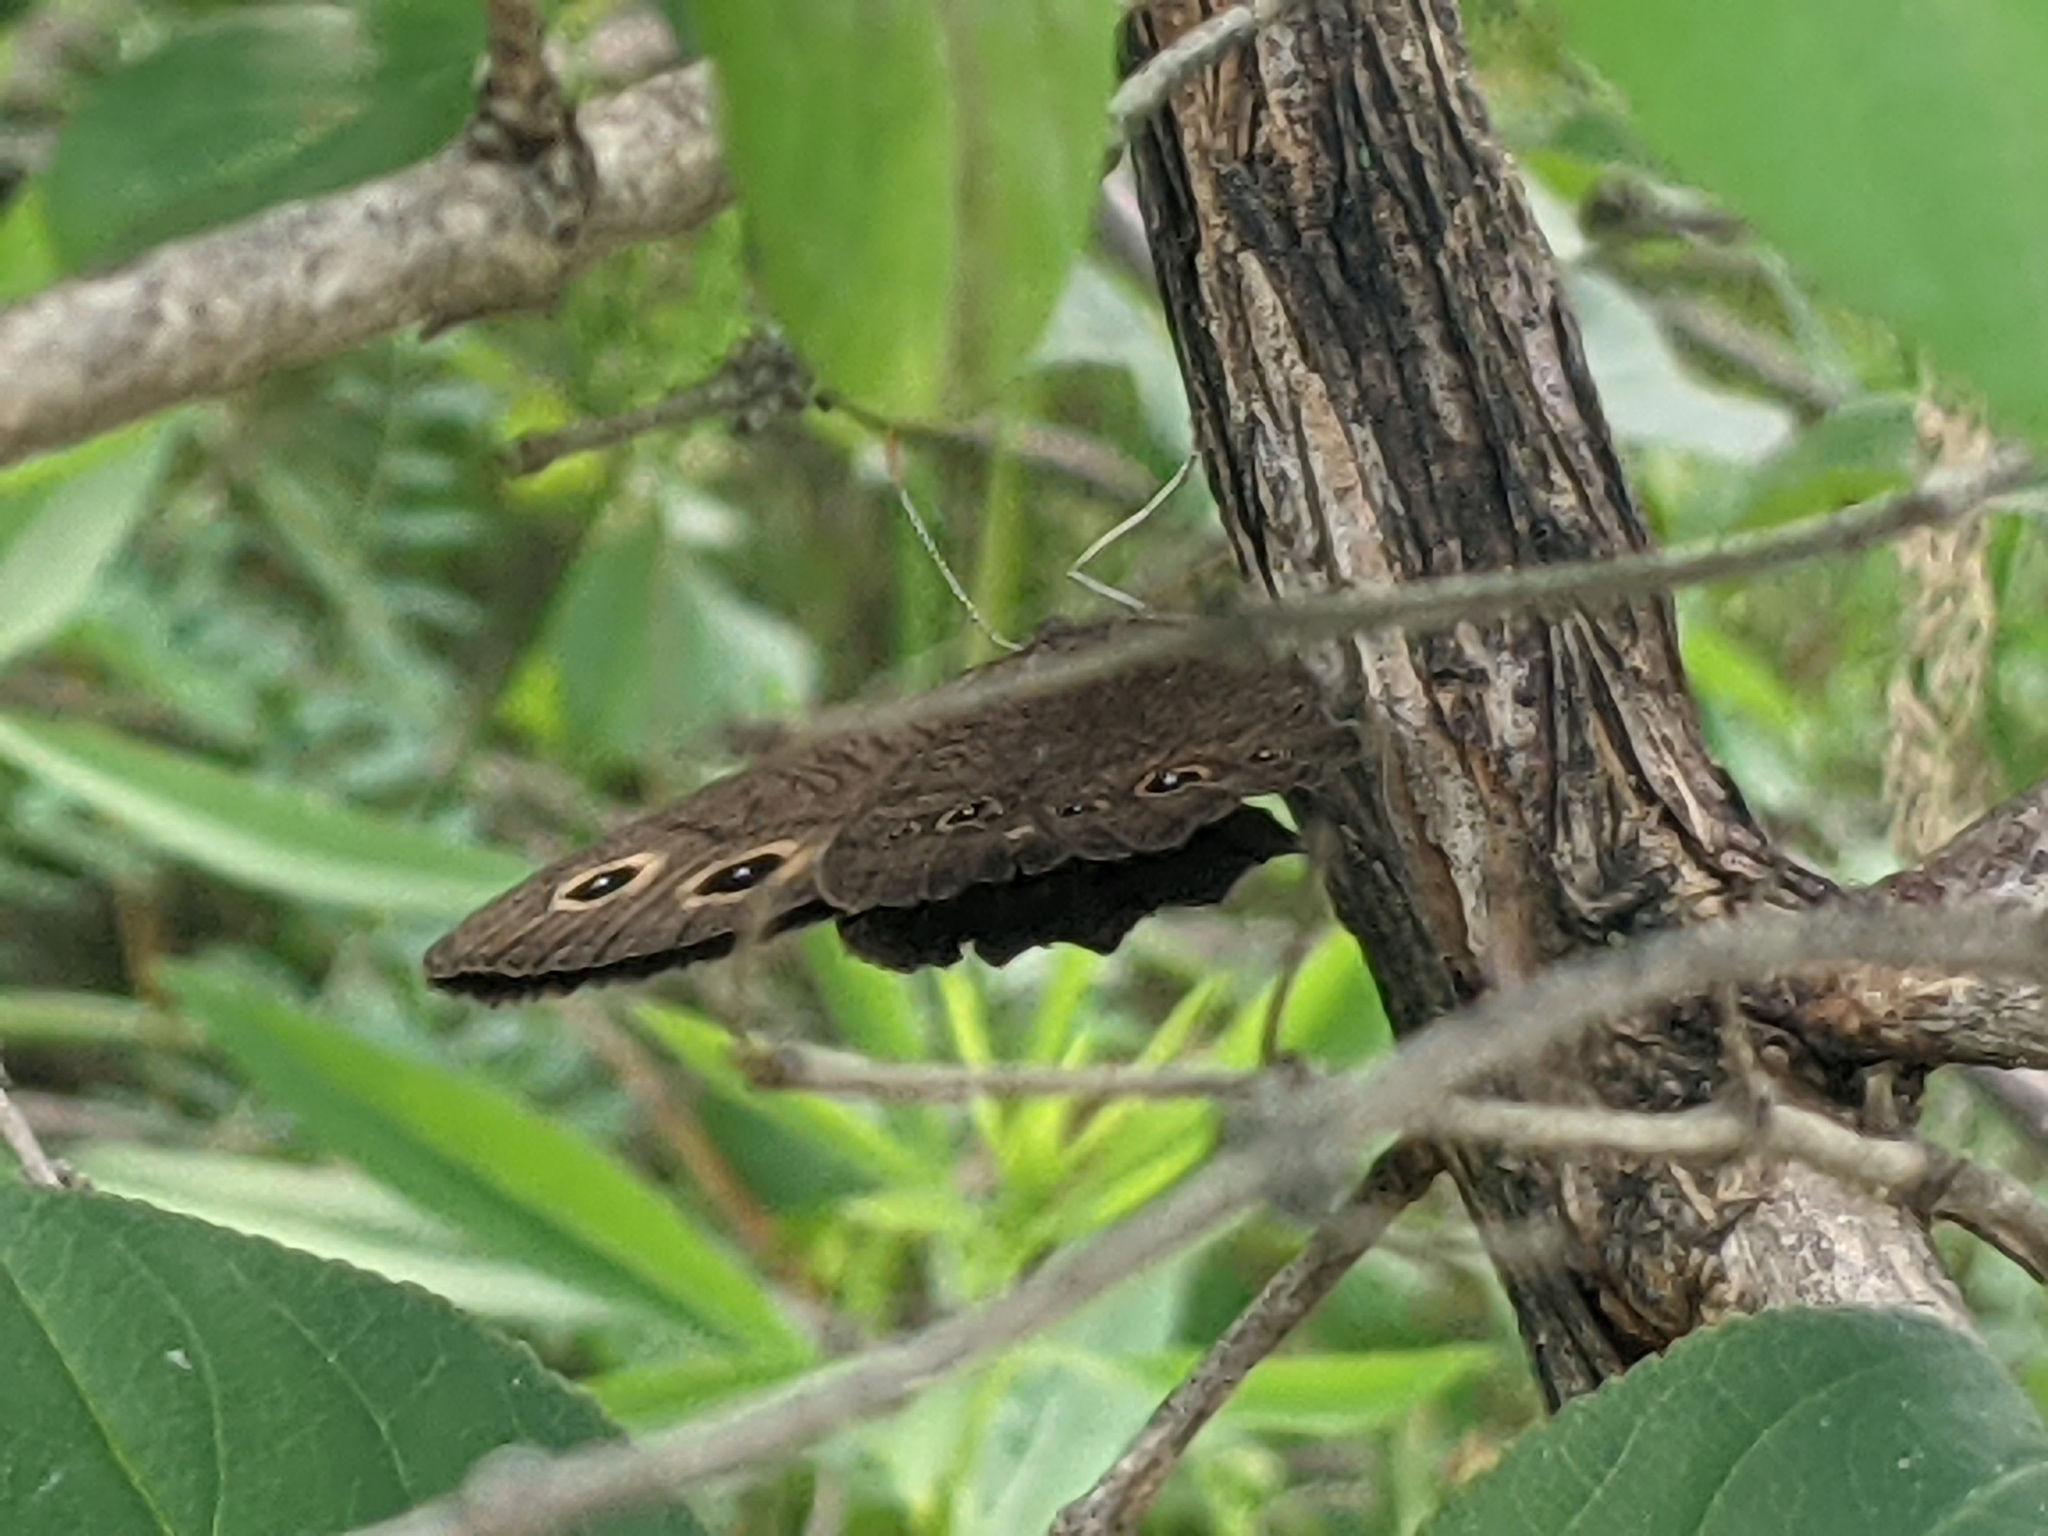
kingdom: Animalia
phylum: Arthropoda
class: Insecta
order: Lepidoptera
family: Nymphalidae
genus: Cercyonis
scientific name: Cercyonis pegala
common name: Common wood-nymph
